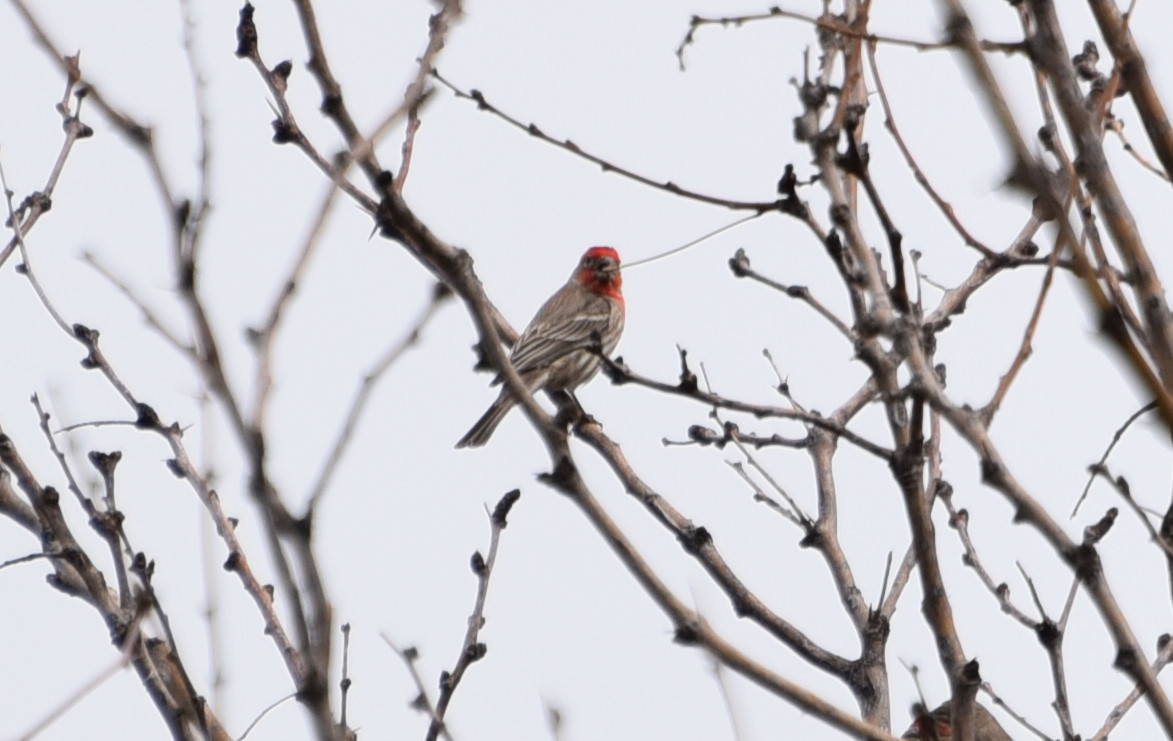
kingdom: Animalia
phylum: Chordata
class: Aves
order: Passeriformes
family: Fringillidae
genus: Haemorhous
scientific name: Haemorhous mexicanus
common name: House finch
